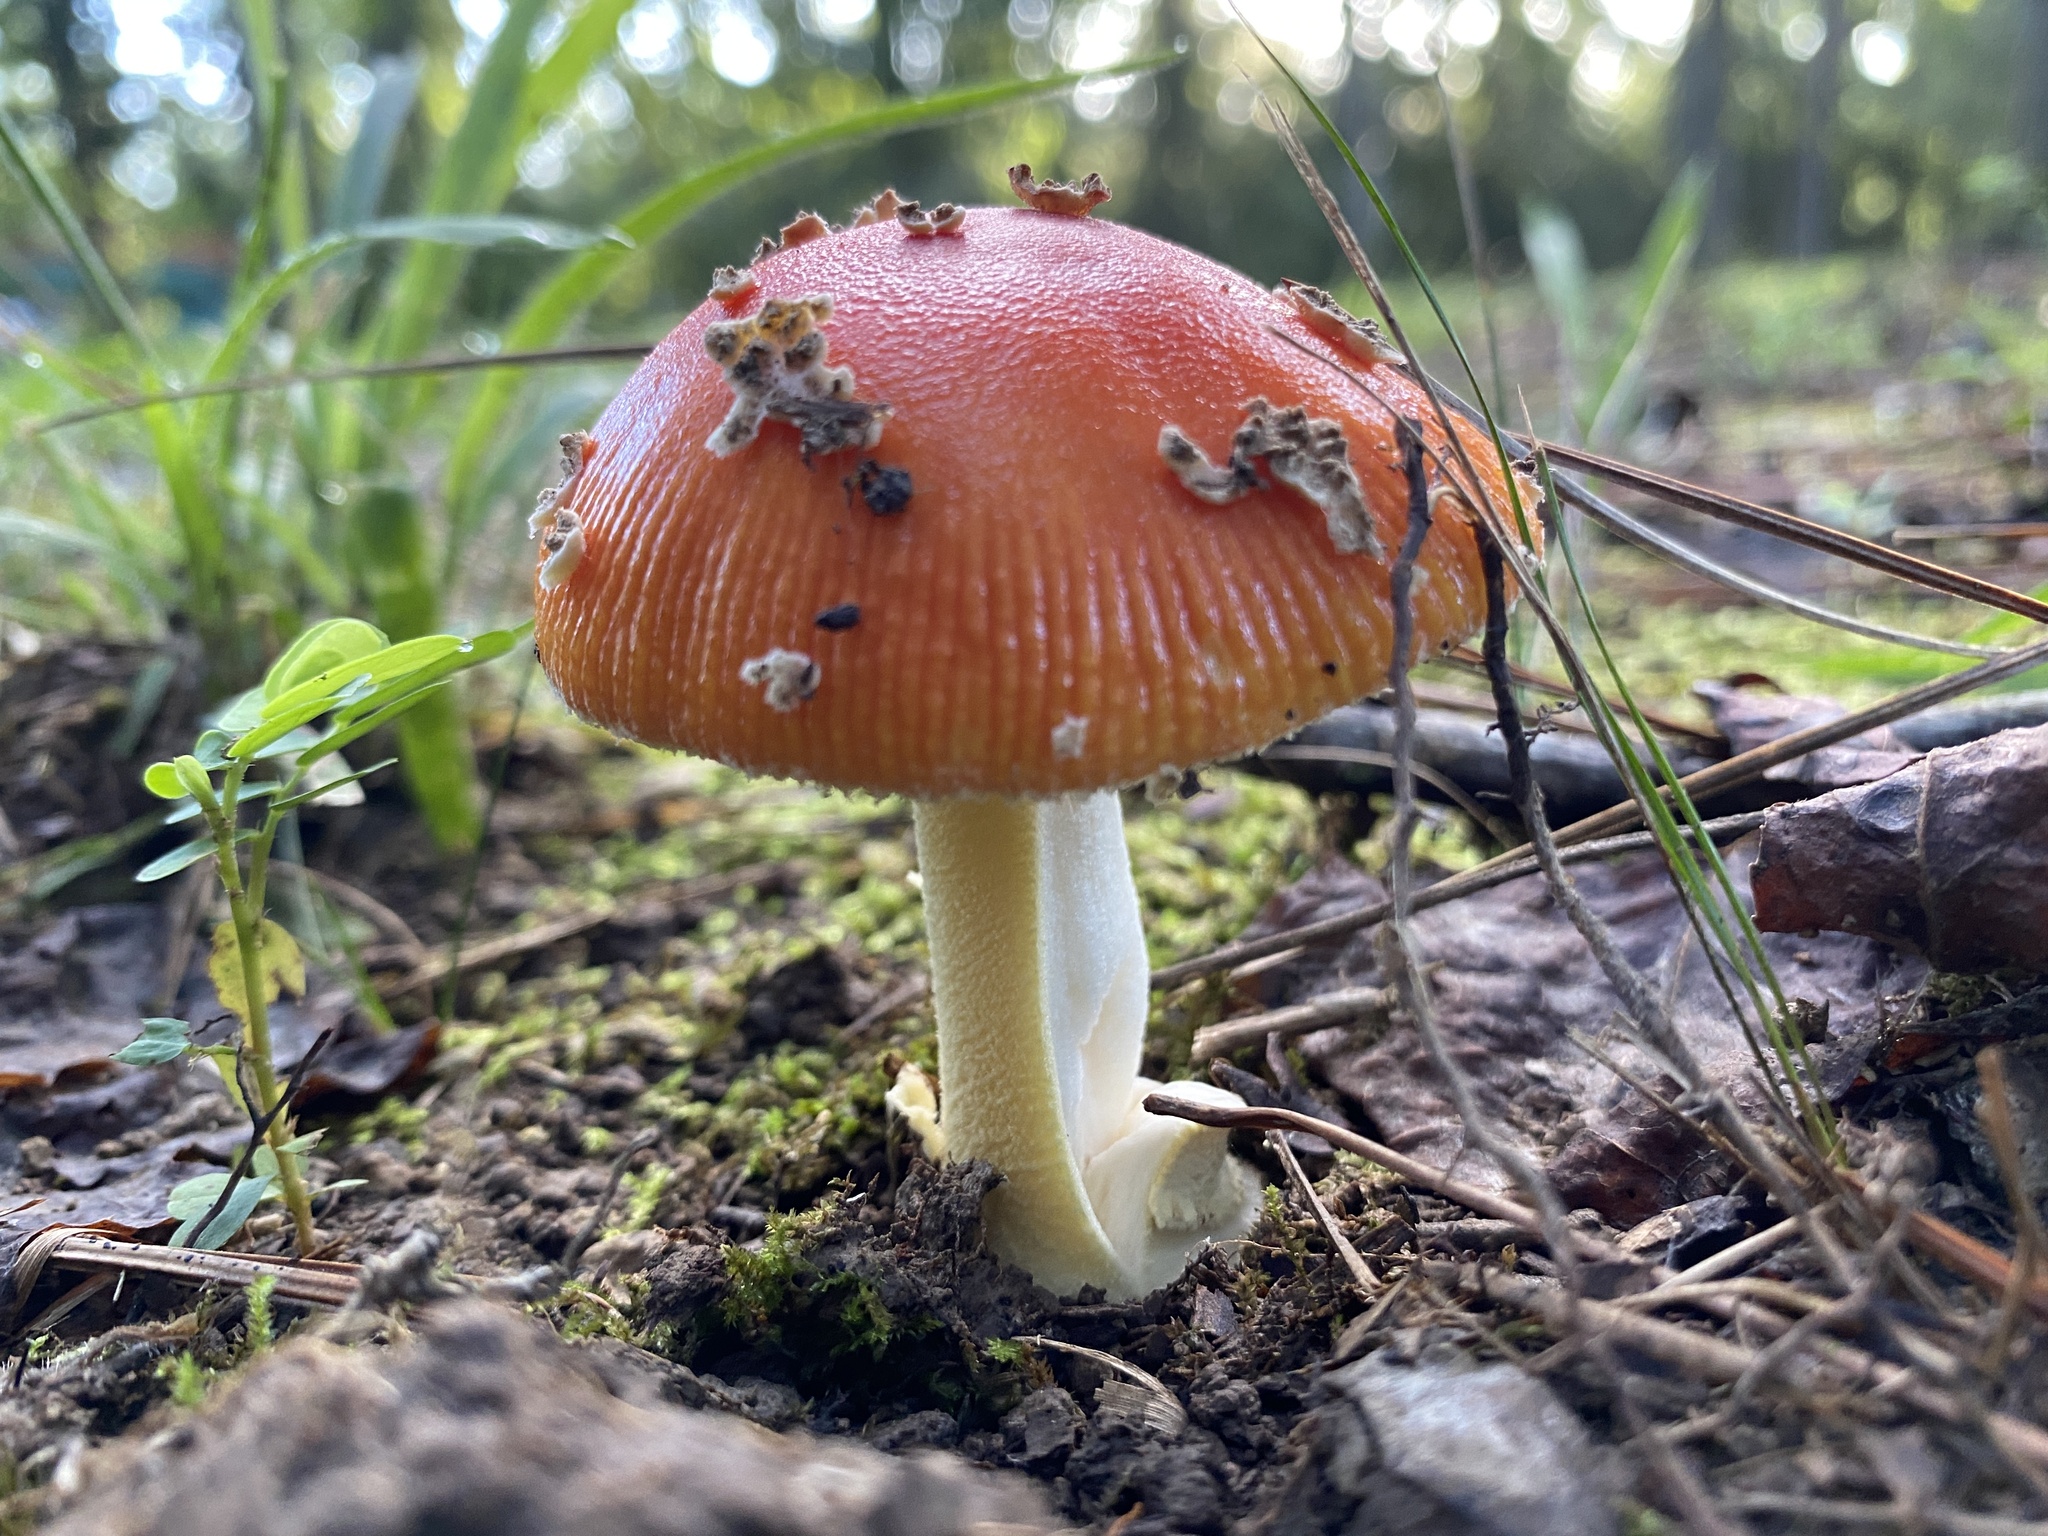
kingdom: Fungi
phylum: Basidiomycota
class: Agaricomycetes
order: Agaricales
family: Amanitaceae
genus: Amanita
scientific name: Amanita parcivolvata
